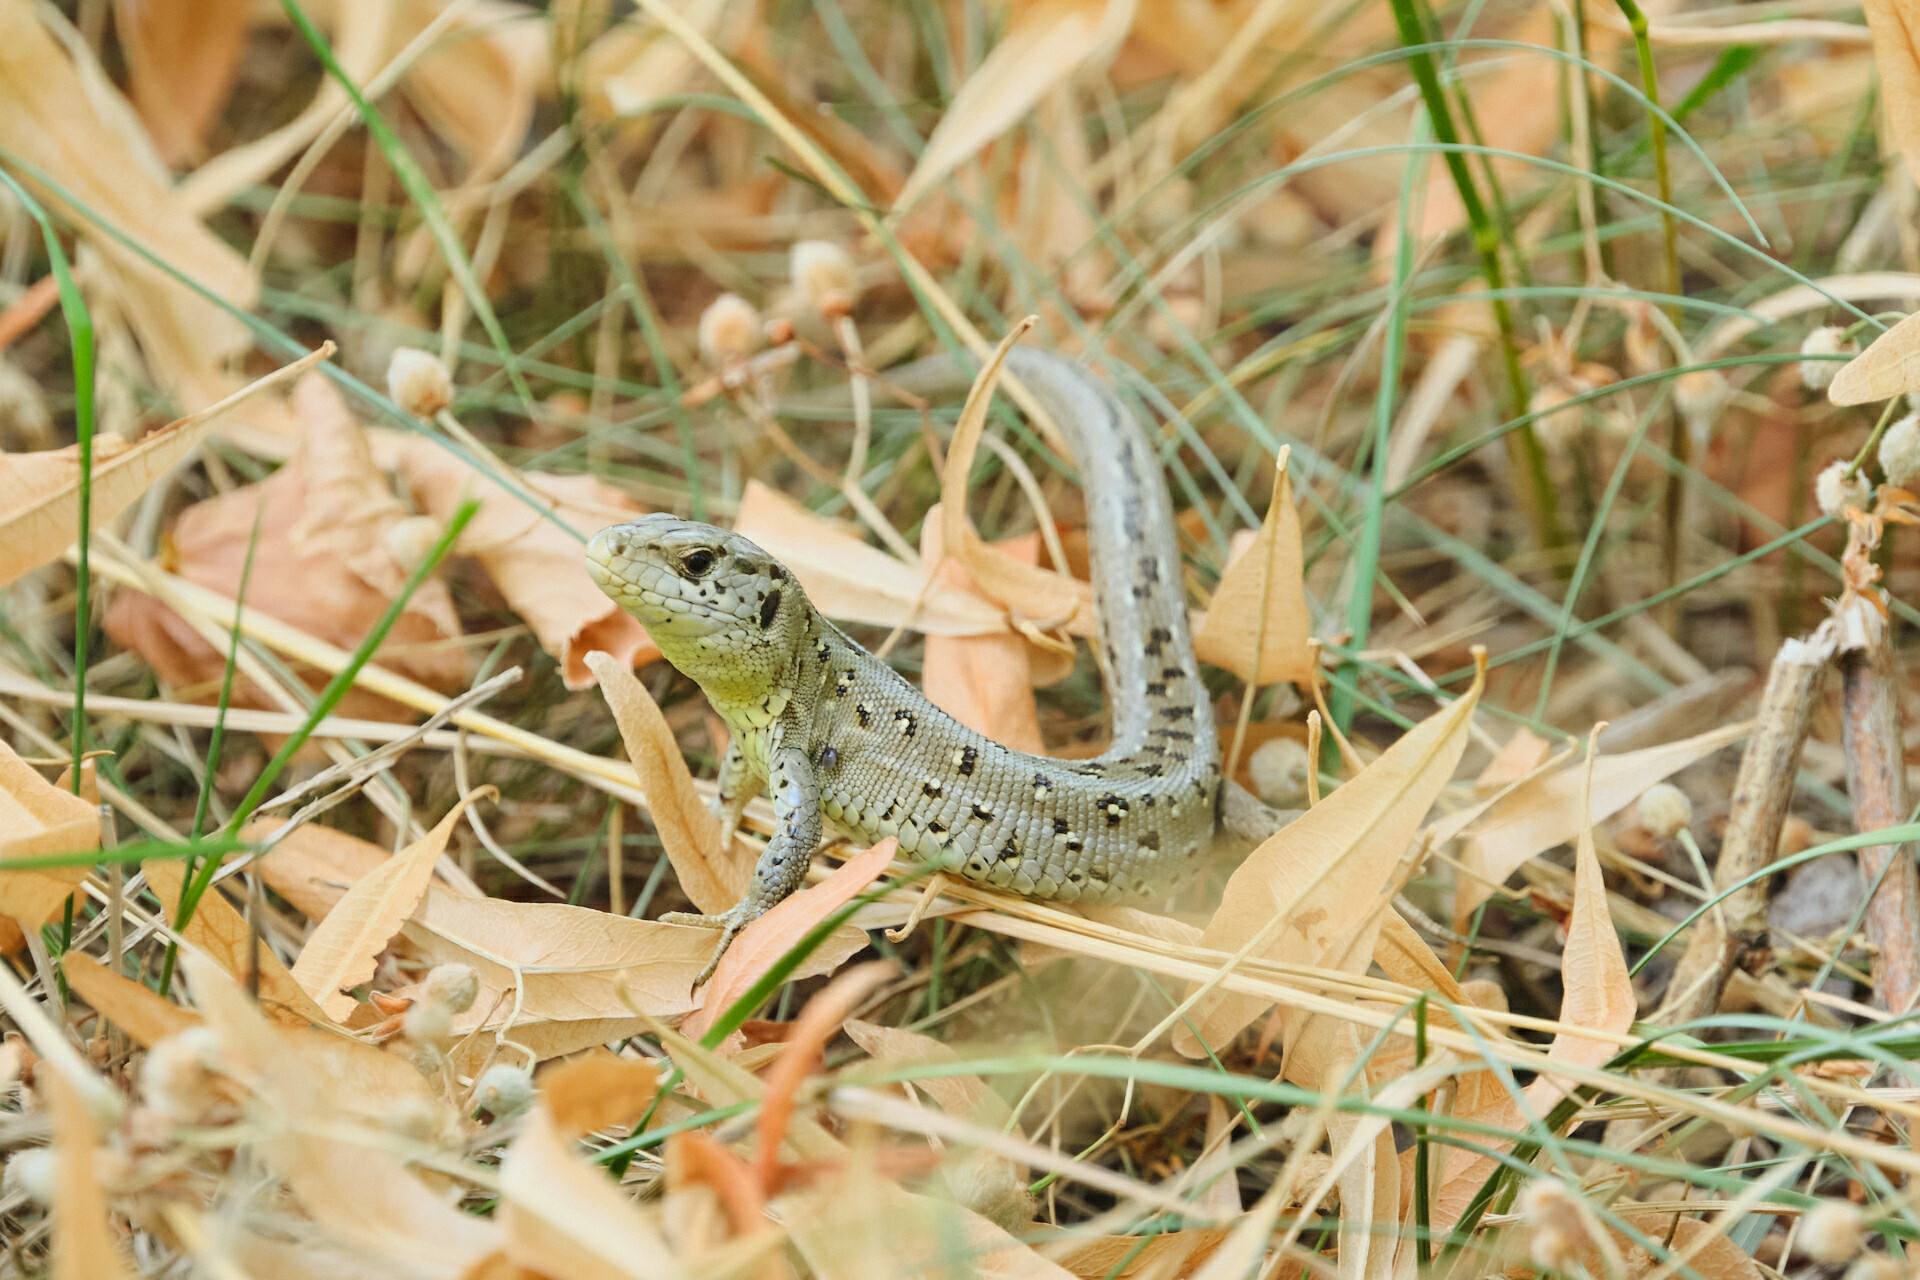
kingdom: Animalia
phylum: Chordata
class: Squamata
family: Lacertidae
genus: Lacerta
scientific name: Lacerta agilis
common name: Sand lizard
